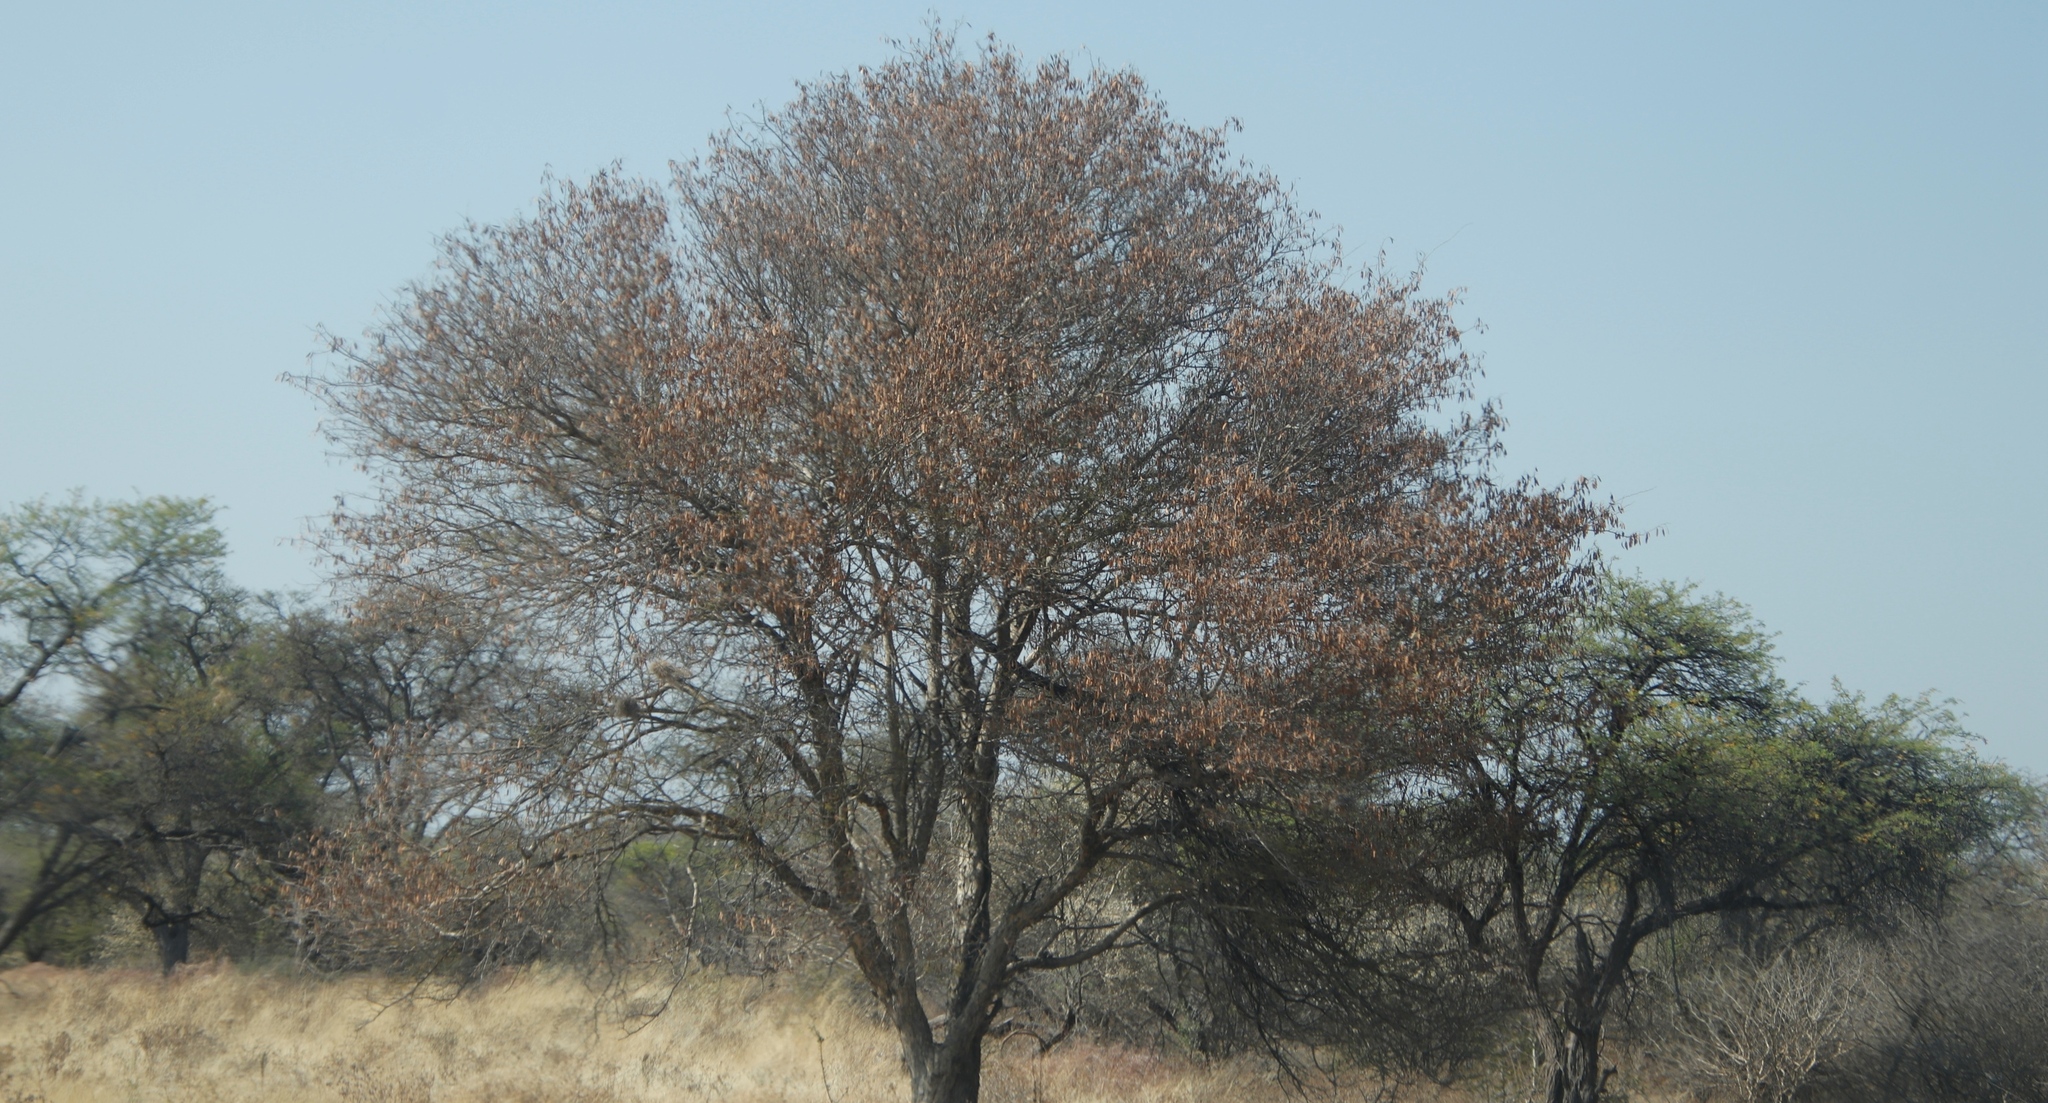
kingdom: Plantae
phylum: Tracheophyta
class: Magnoliopsida
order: Myrtales
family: Combretaceae
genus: Terminalia
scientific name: Terminalia sericea
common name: Clusterleaf
